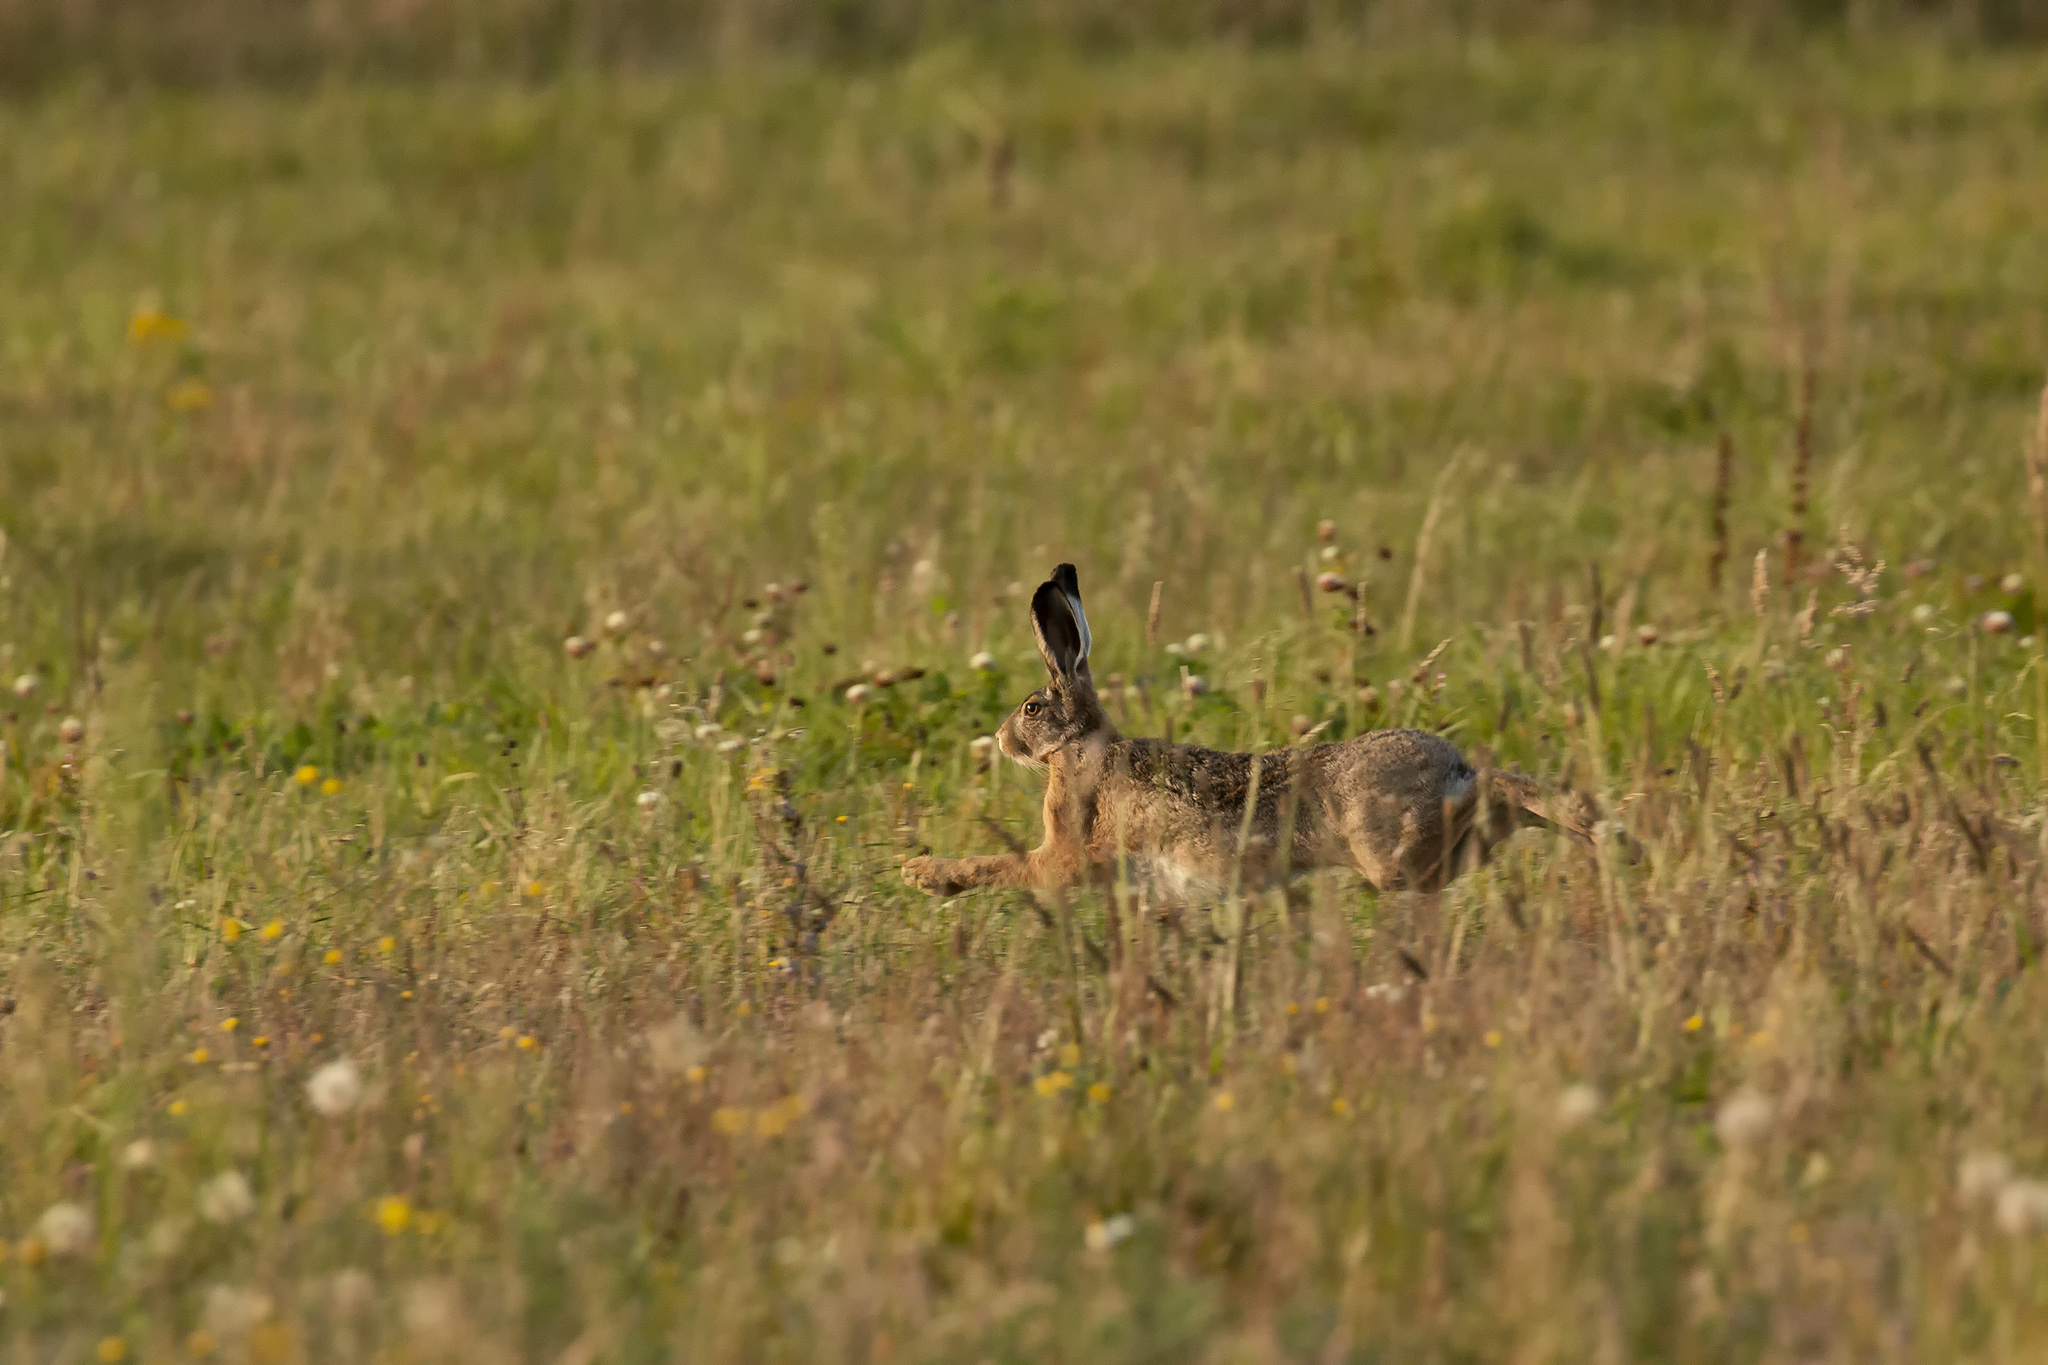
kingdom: Animalia
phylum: Chordata
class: Mammalia
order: Lagomorpha
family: Leporidae
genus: Lepus
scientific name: Lepus europaeus
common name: European hare
